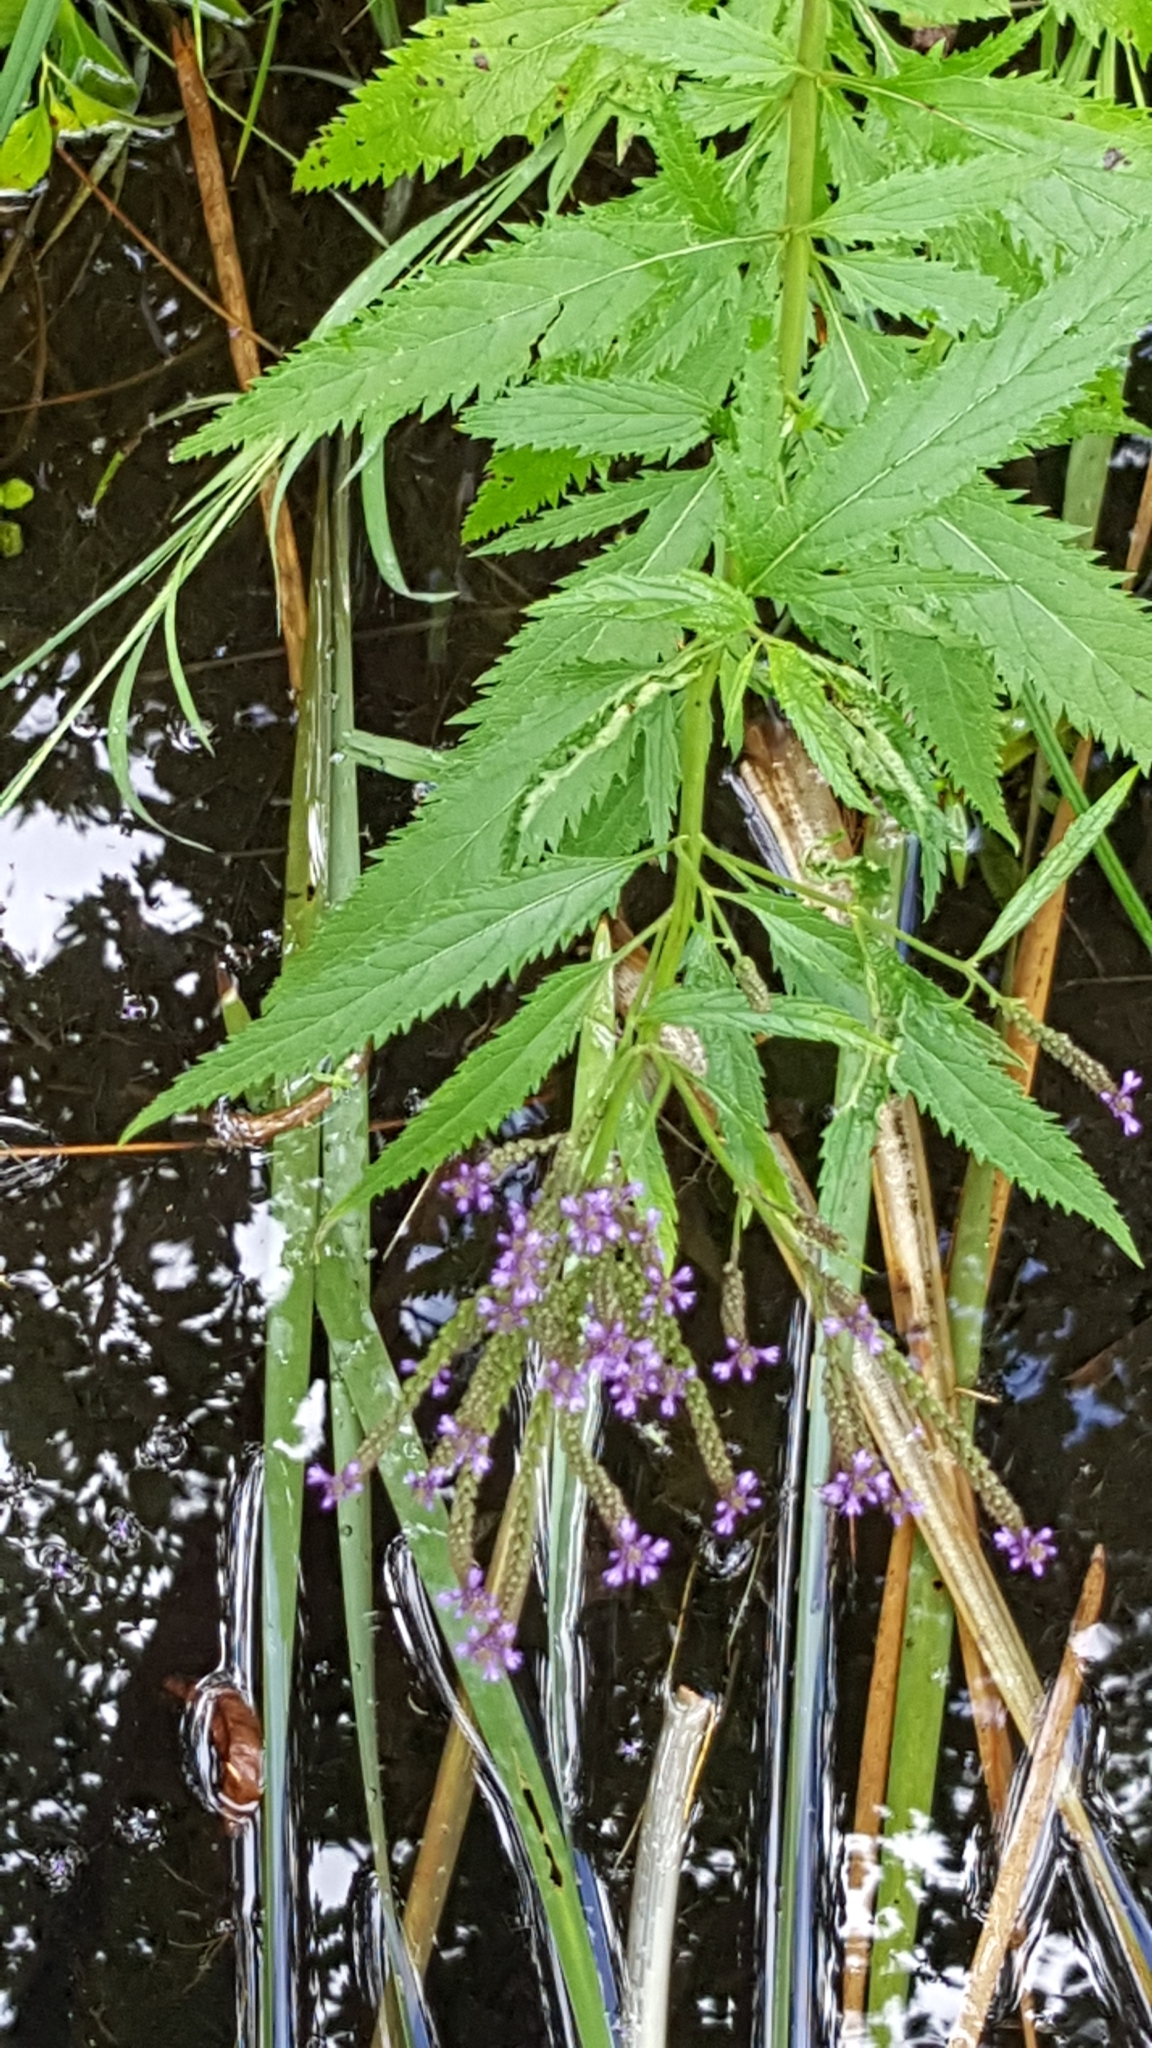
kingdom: Plantae
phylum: Tracheophyta
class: Magnoliopsida
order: Lamiales
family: Verbenaceae
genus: Verbena
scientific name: Verbena hastata
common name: American blue vervain
